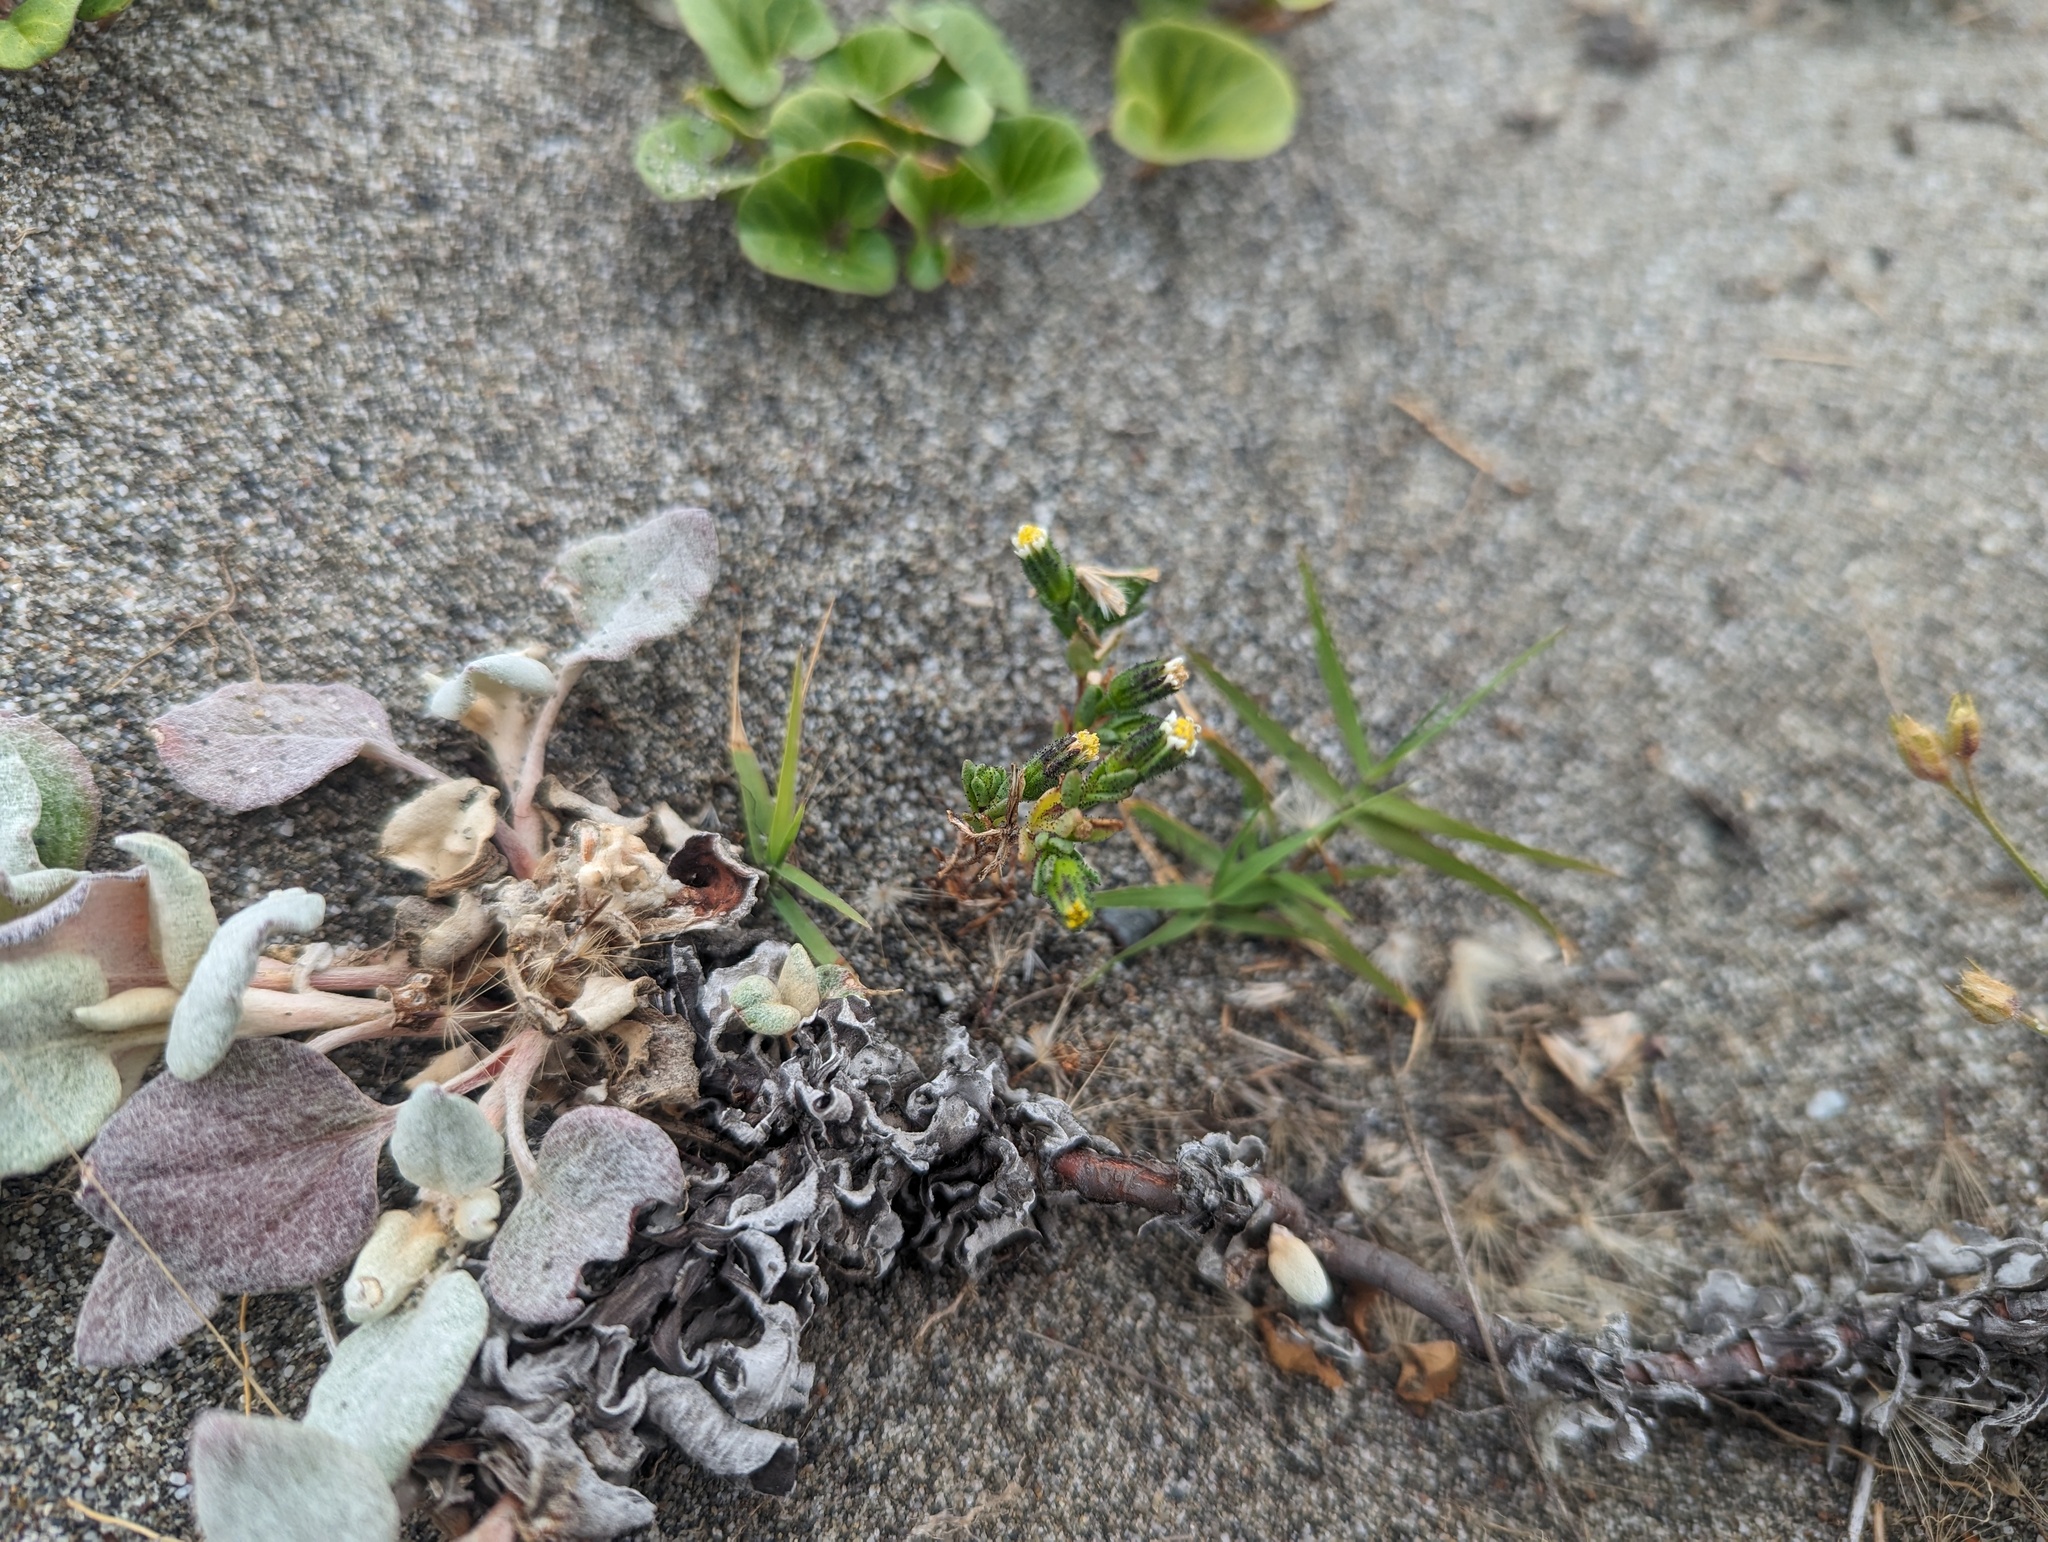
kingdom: Plantae
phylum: Tracheophyta
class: Magnoliopsida
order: Asterales
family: Asteraceae
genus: Layia
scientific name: Layia carnosa
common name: Beach layia
